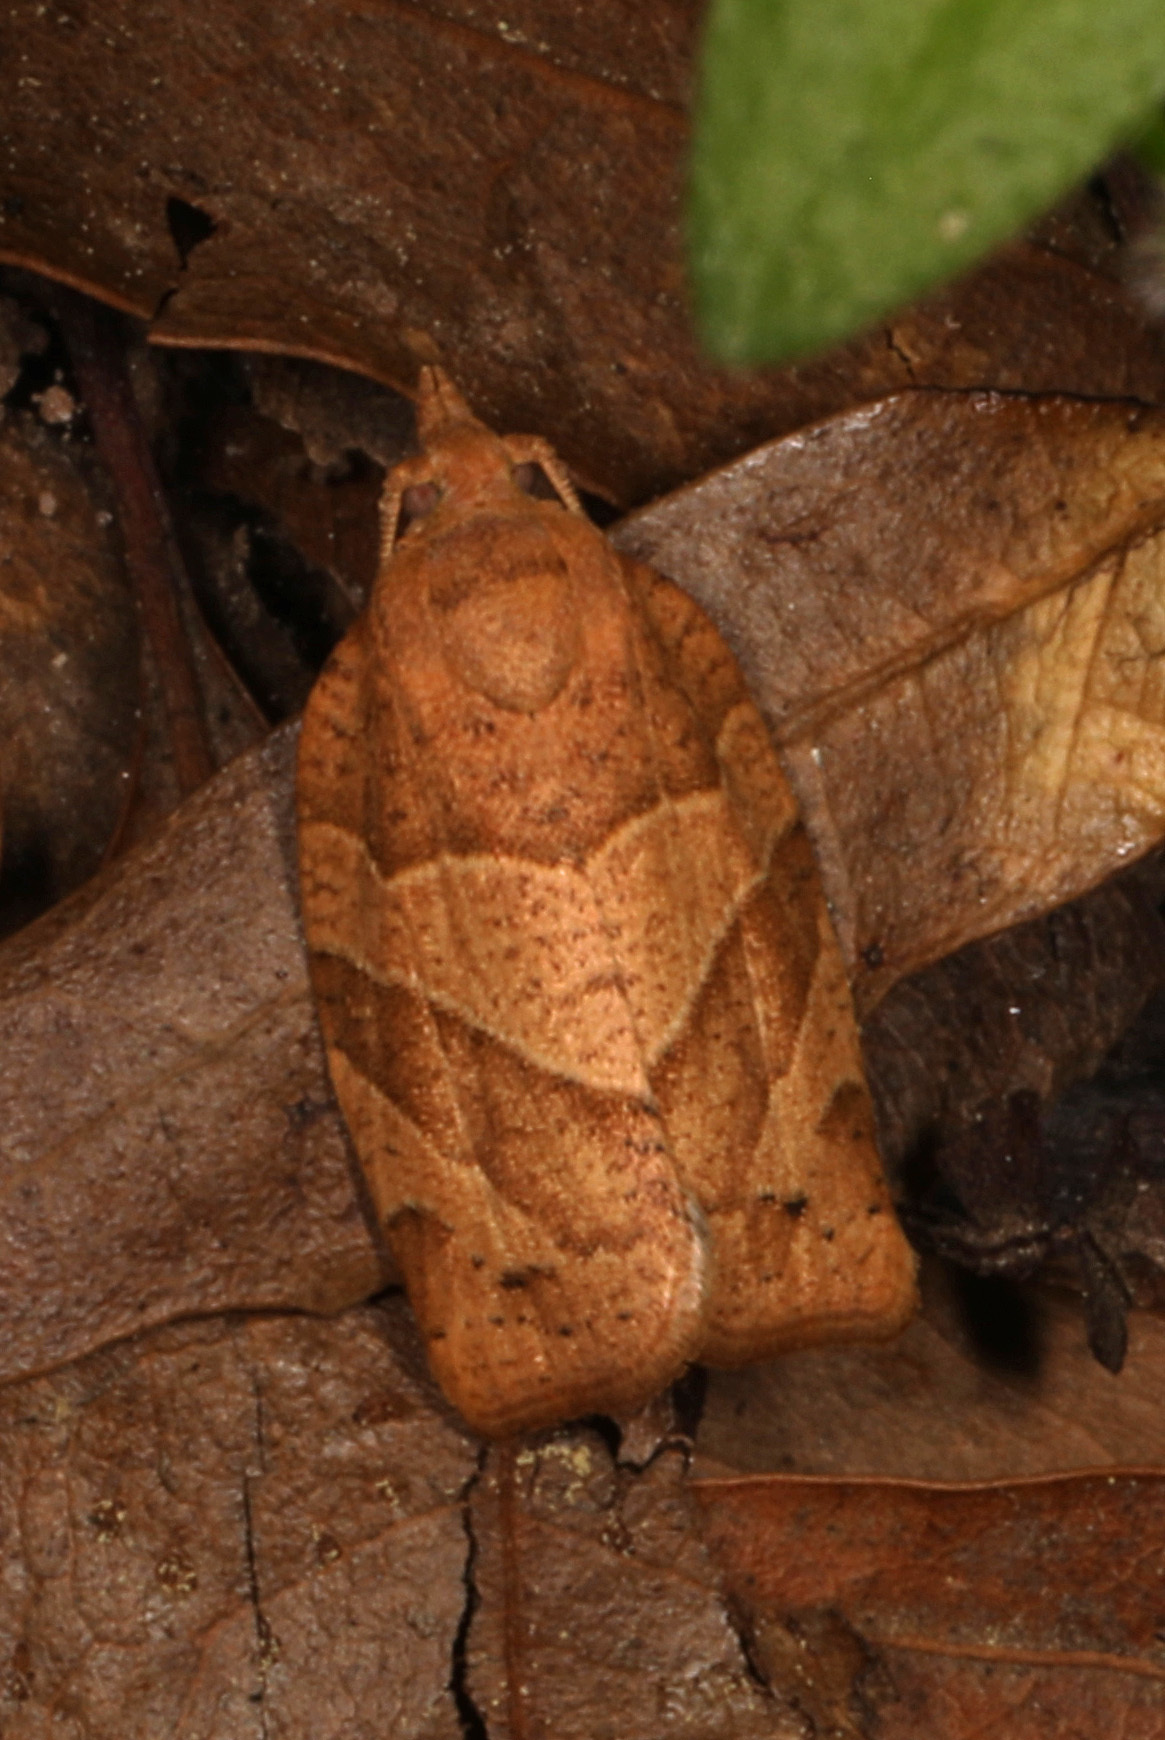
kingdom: Animalia
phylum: Arthropoda
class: Insecta
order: Lepidoptera
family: Tortricidae
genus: Pandemis
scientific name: Pandemis lamprosana
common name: Woodgrain leafroller moth
